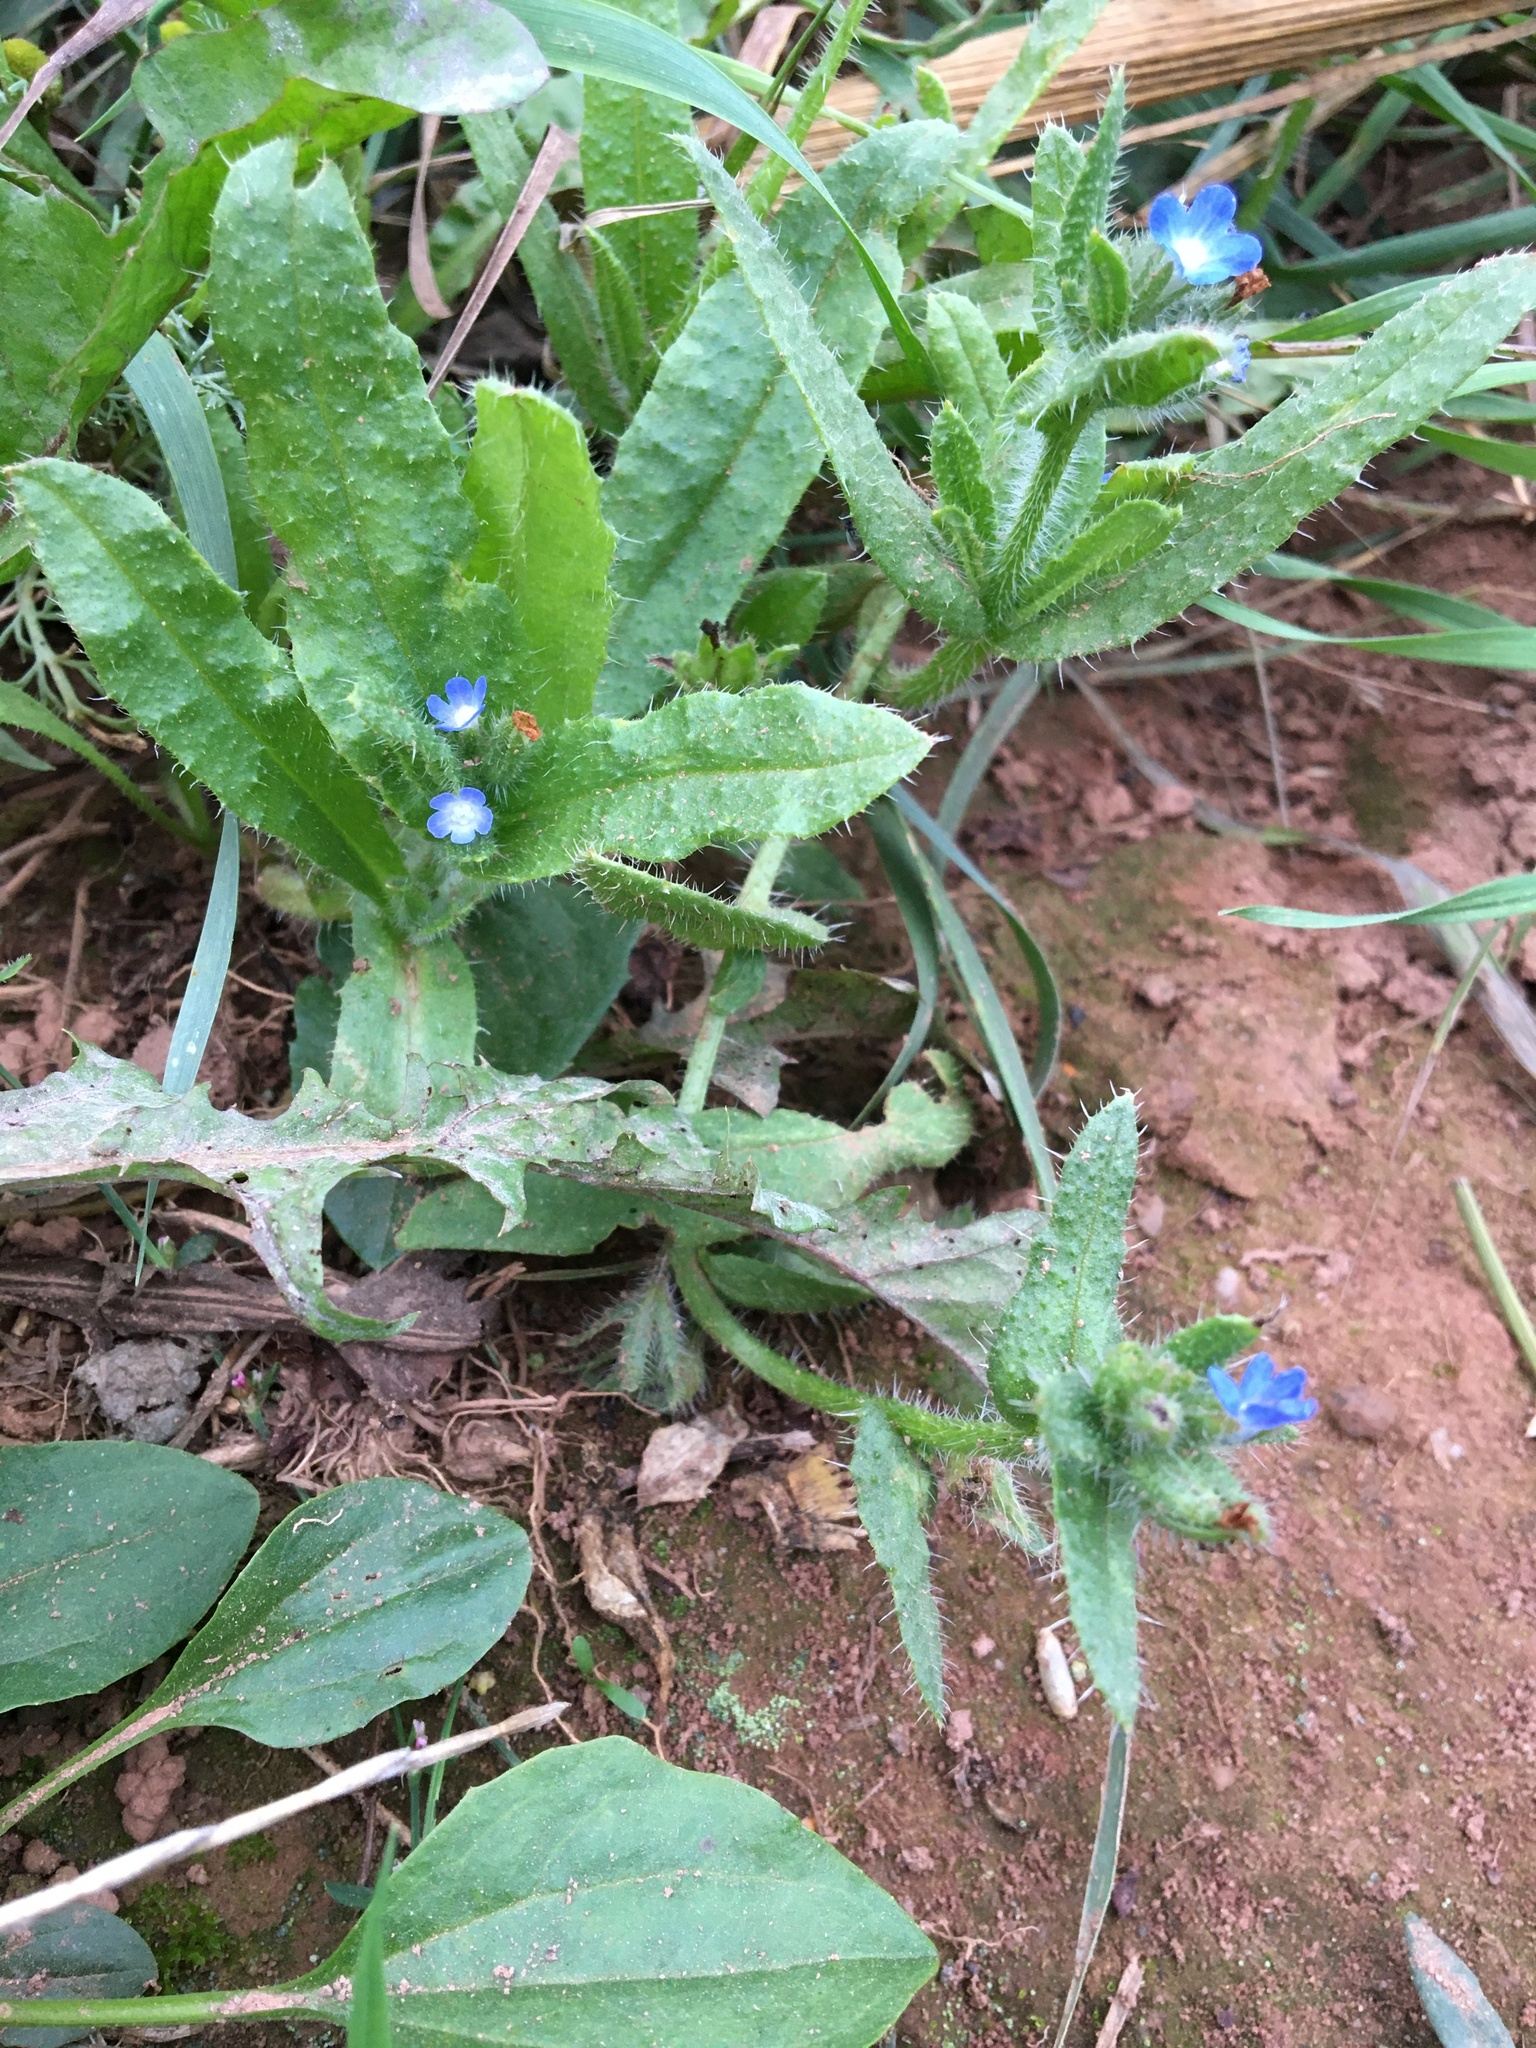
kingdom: Plantae
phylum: Tracheophyta
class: Magnoliopsida
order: Boraginales
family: Boraginaceae
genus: Lycopsis
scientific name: Lycopsis arvensis
